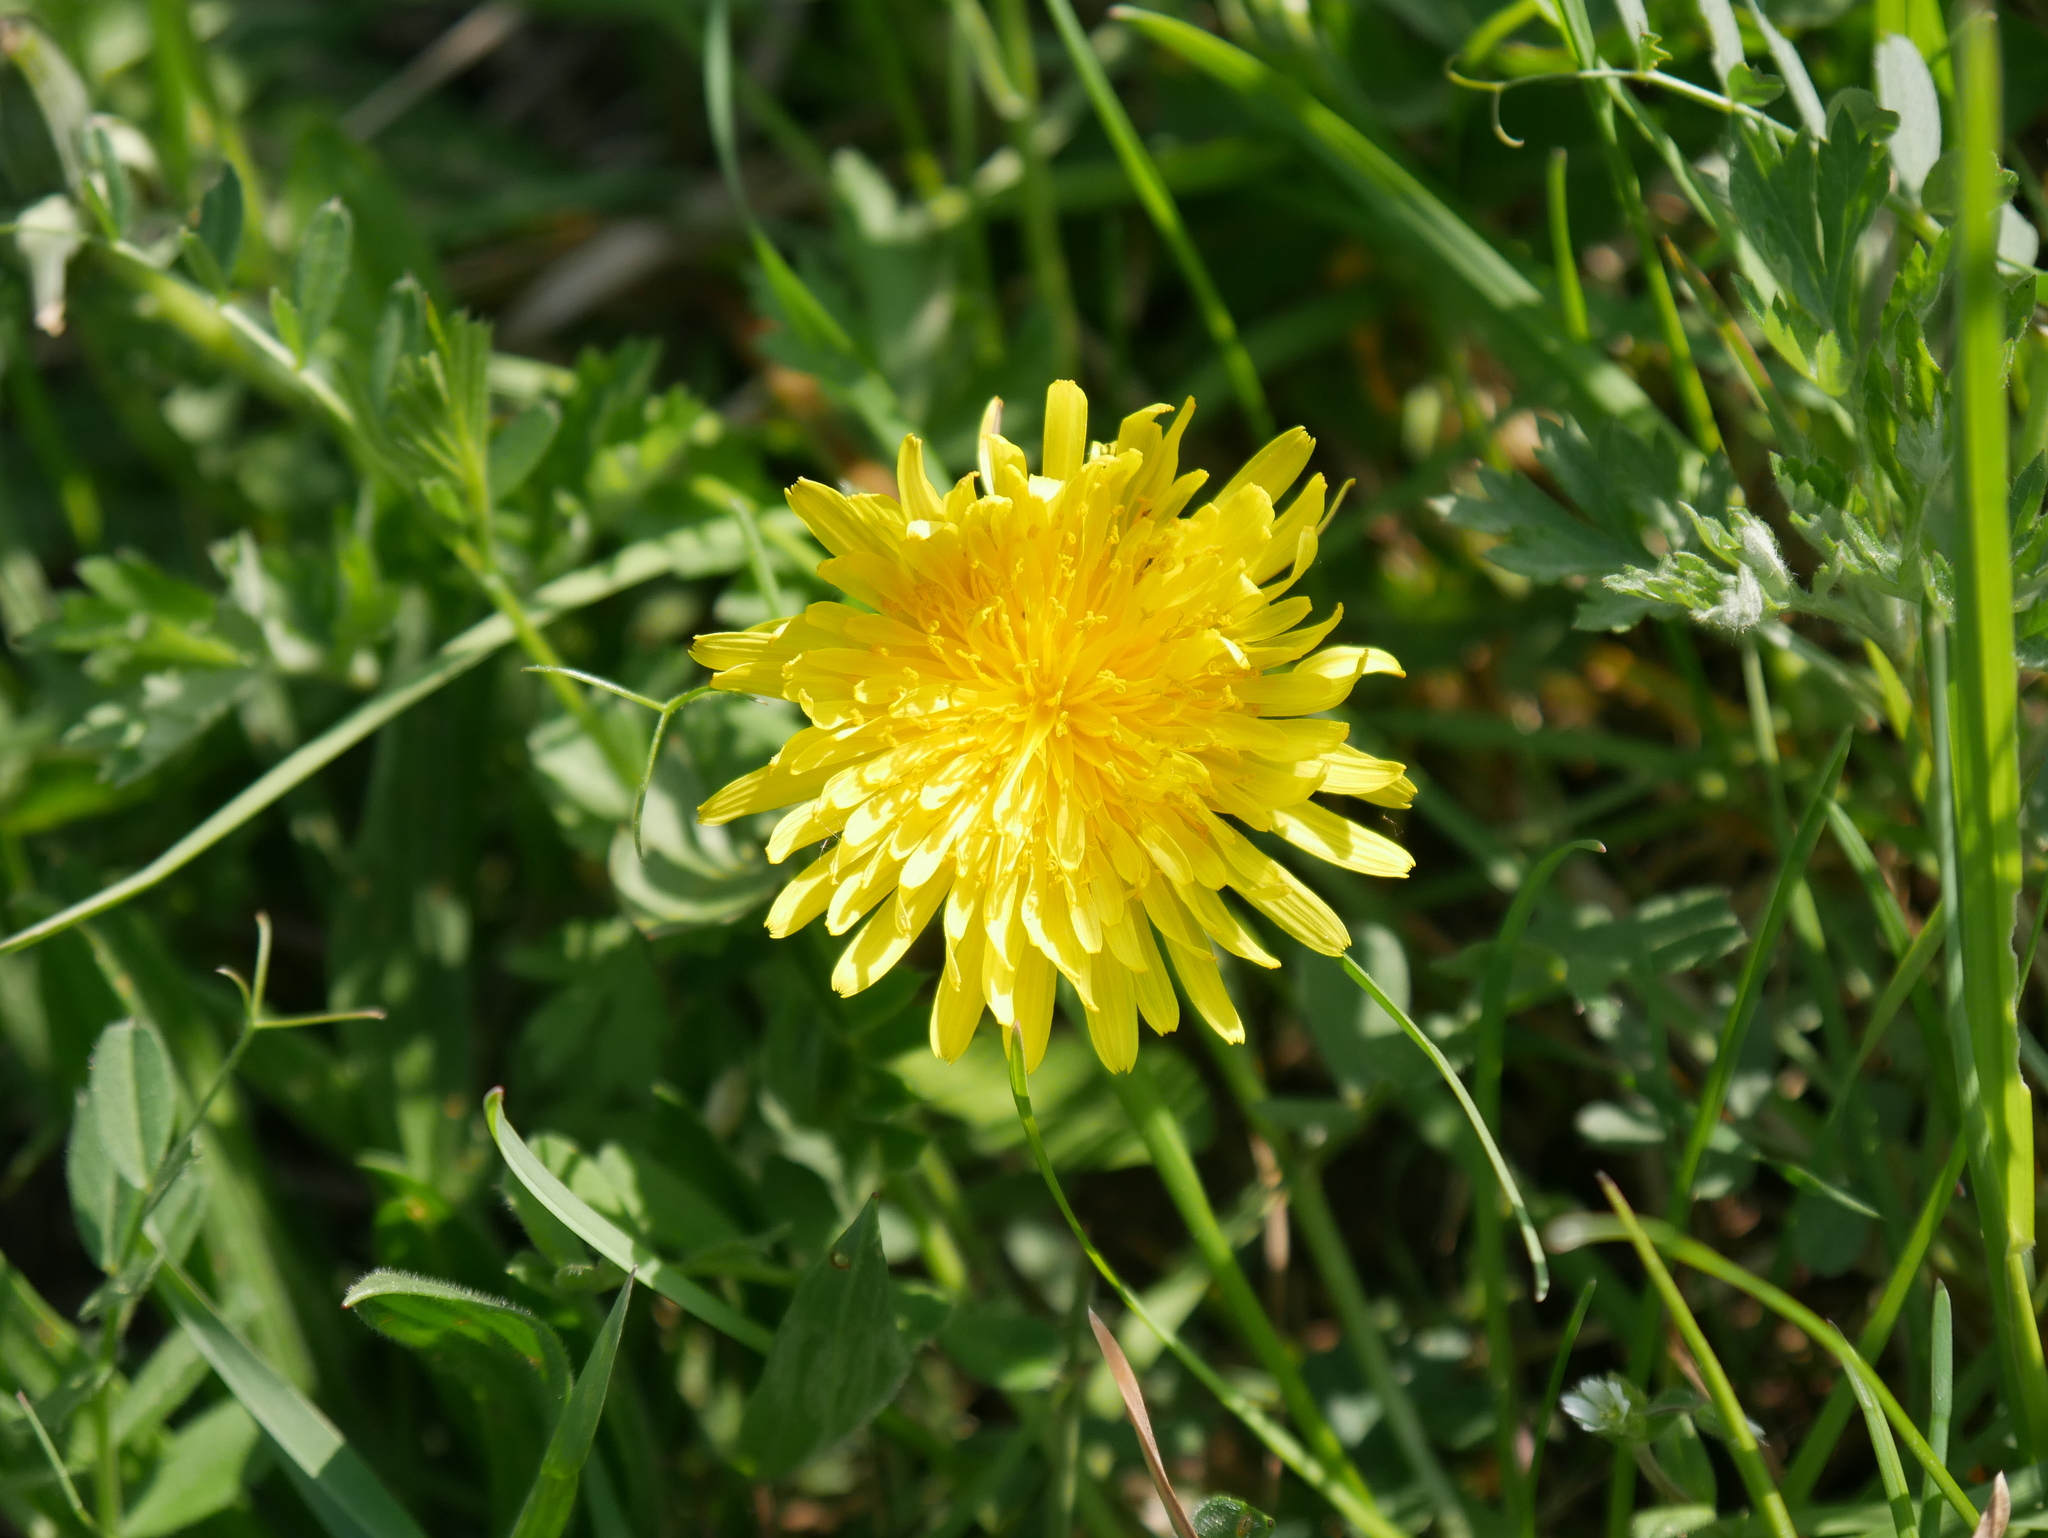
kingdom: Plantae
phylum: Tracheophyta
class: Magnoliopsida
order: Asterales
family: Asteraceae
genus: Taraxacum
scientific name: Taraxacum officinale
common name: Common dandelion
